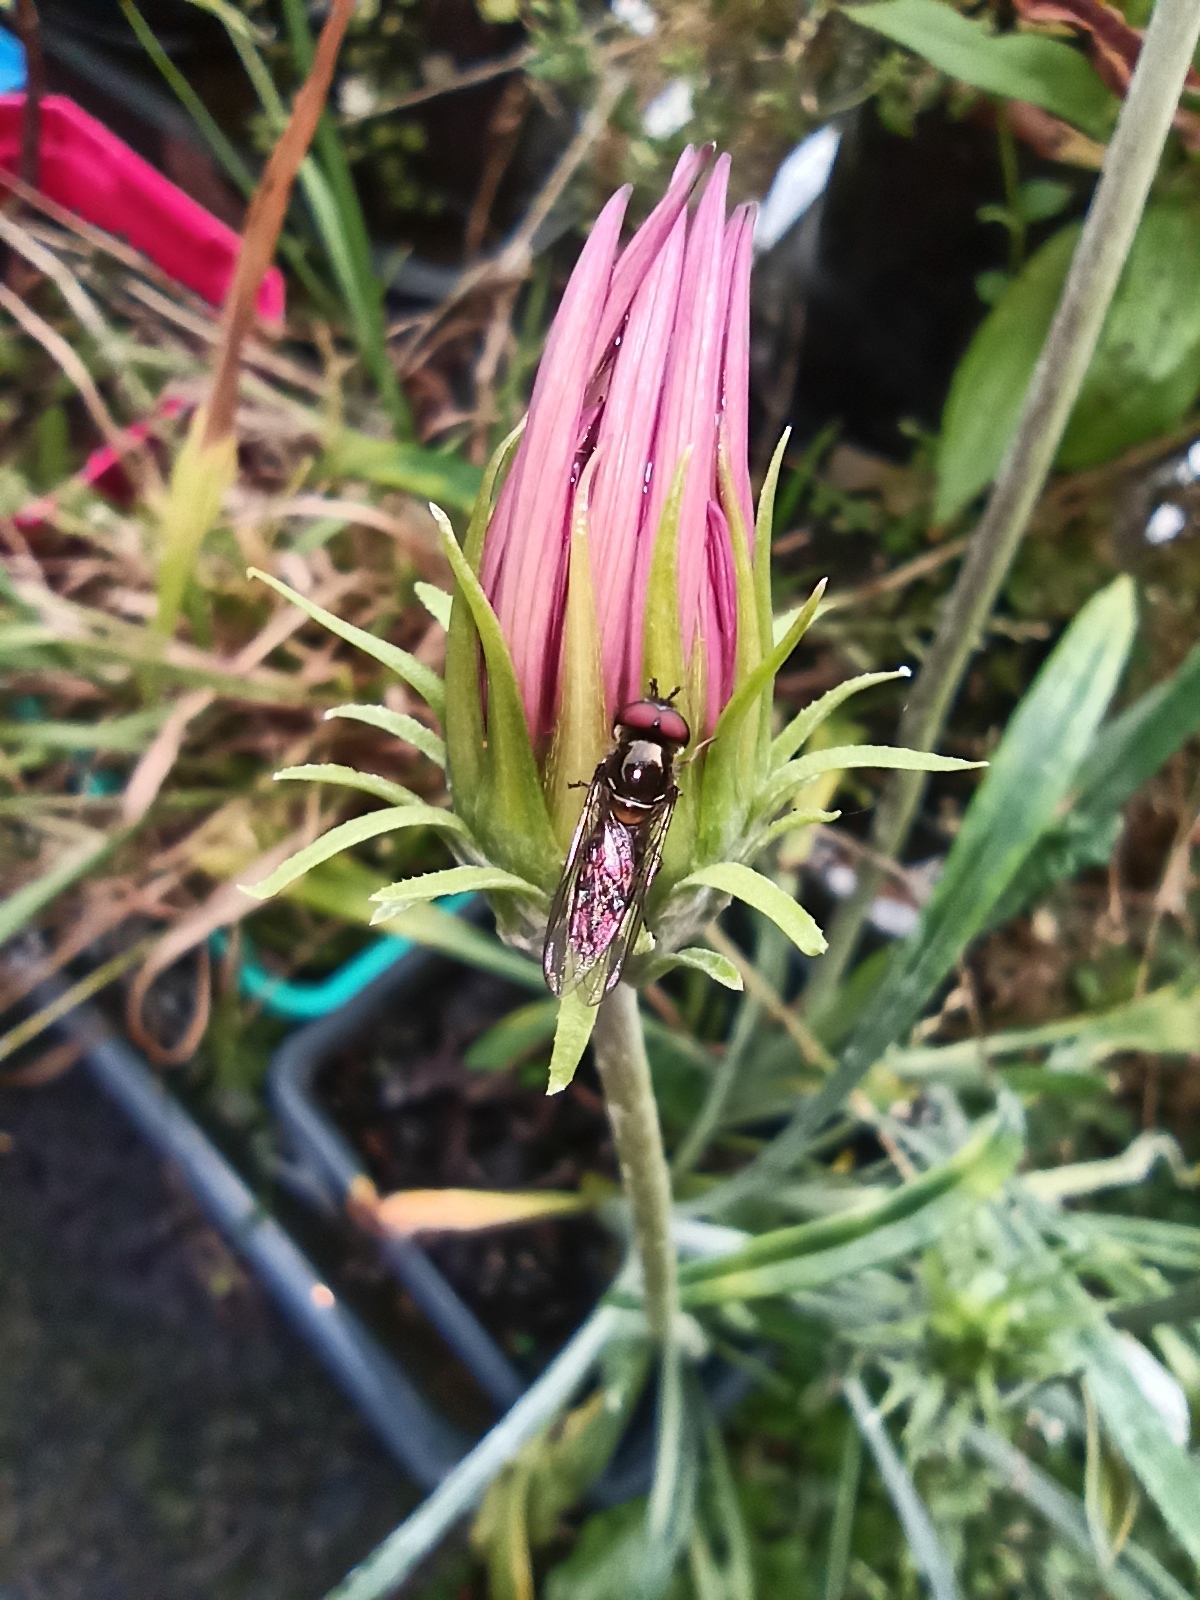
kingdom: Animalia
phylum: Arthropoda
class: Insecta
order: Diptera
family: Syrphidae
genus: Melangyna
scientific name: Melangyna novaezelandiae
